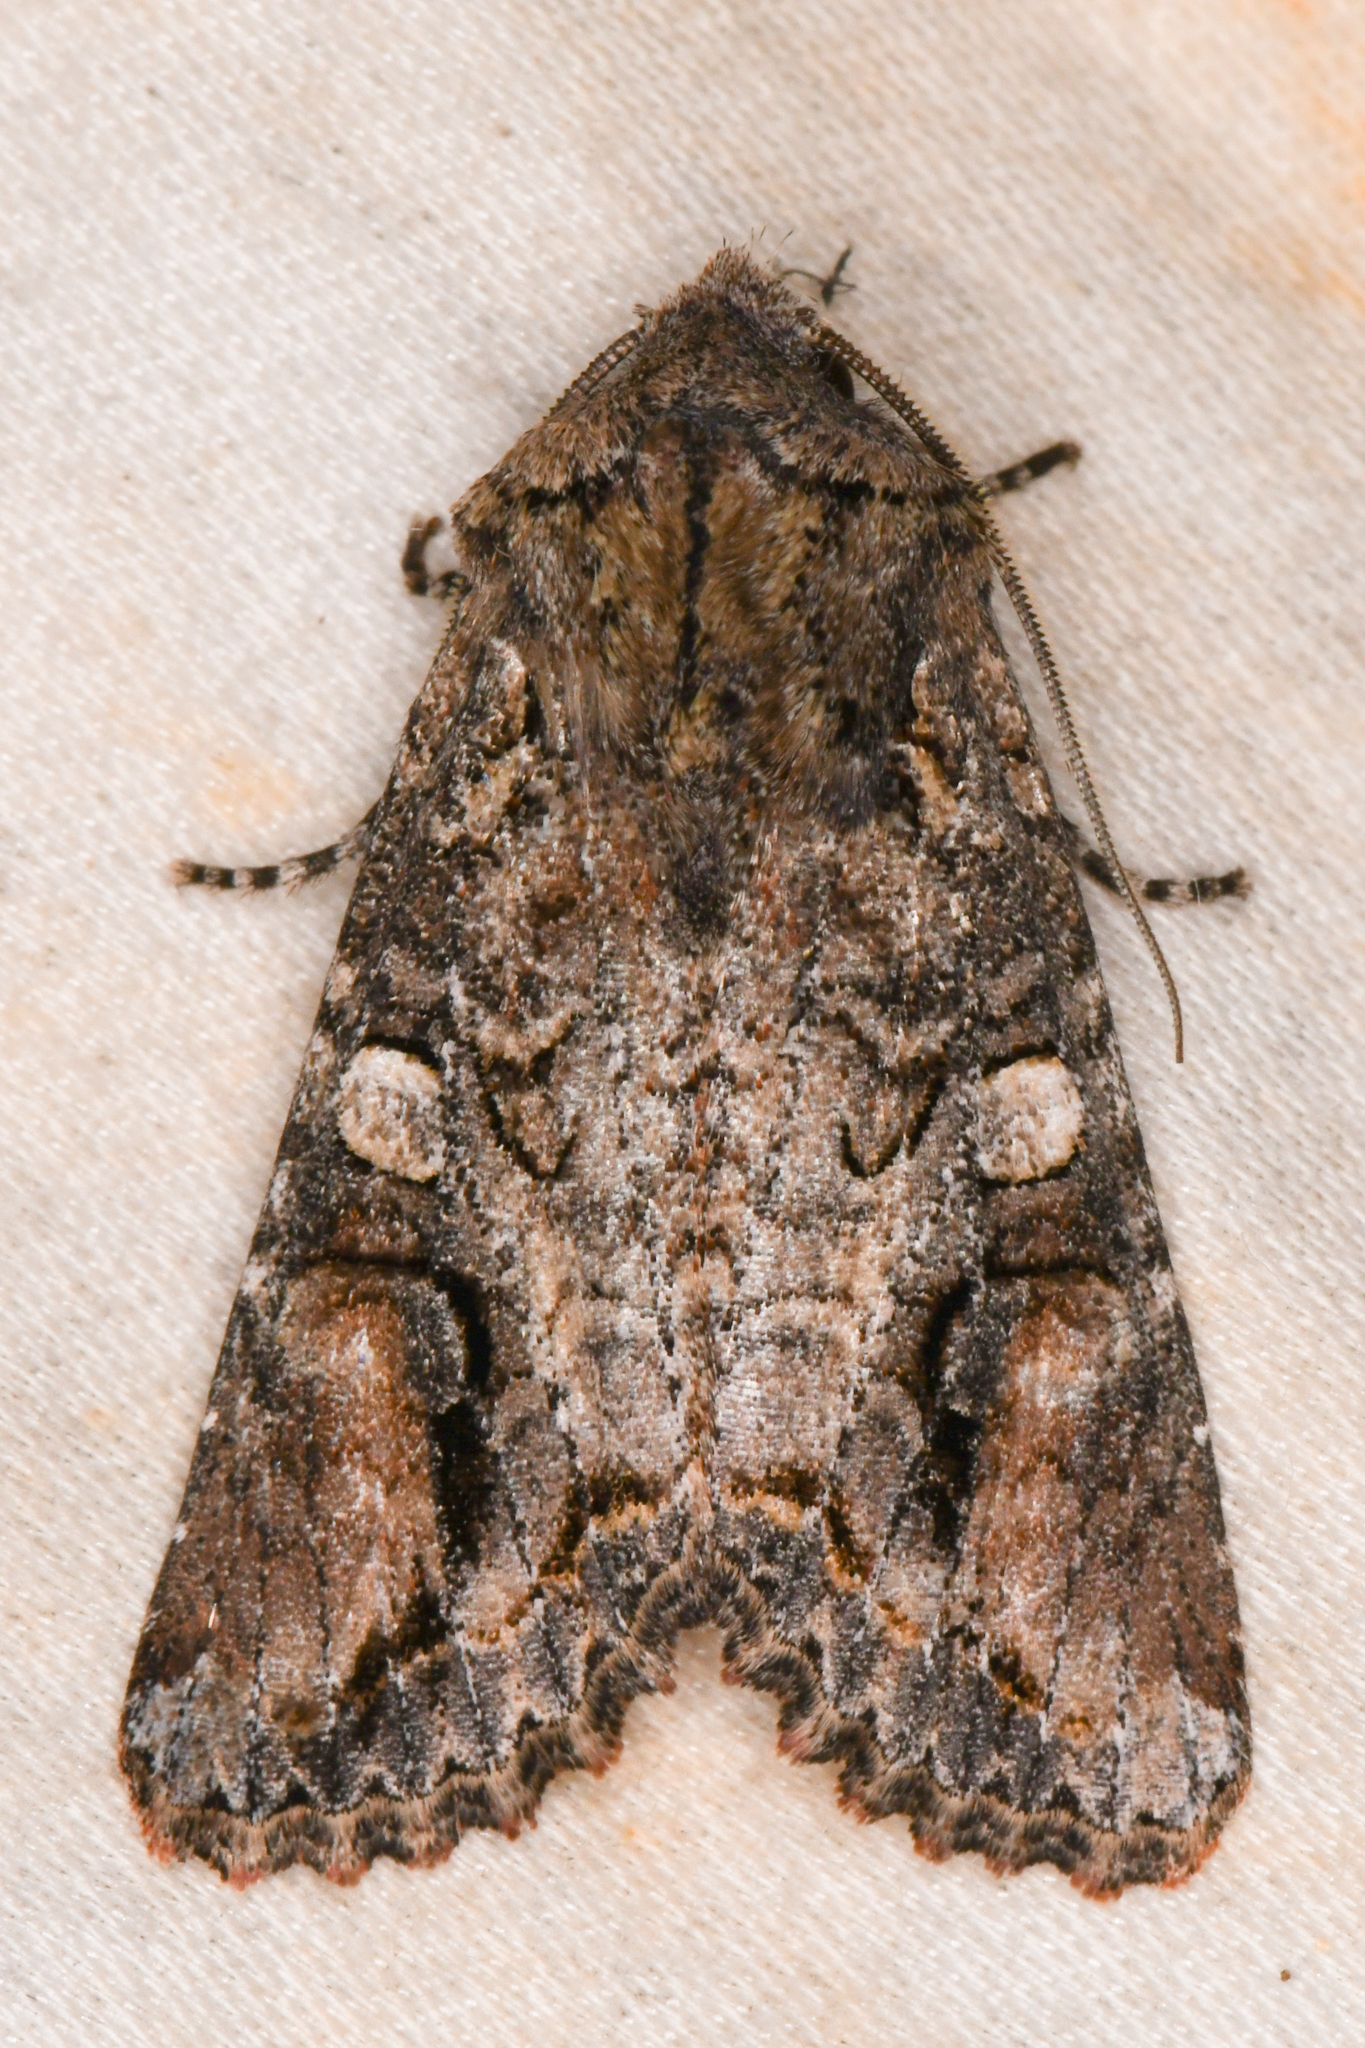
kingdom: Animalia
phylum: Arthropoda
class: Insecta
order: Lepidoptera
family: Noctuidae
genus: Egira
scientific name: Egira perlubens
